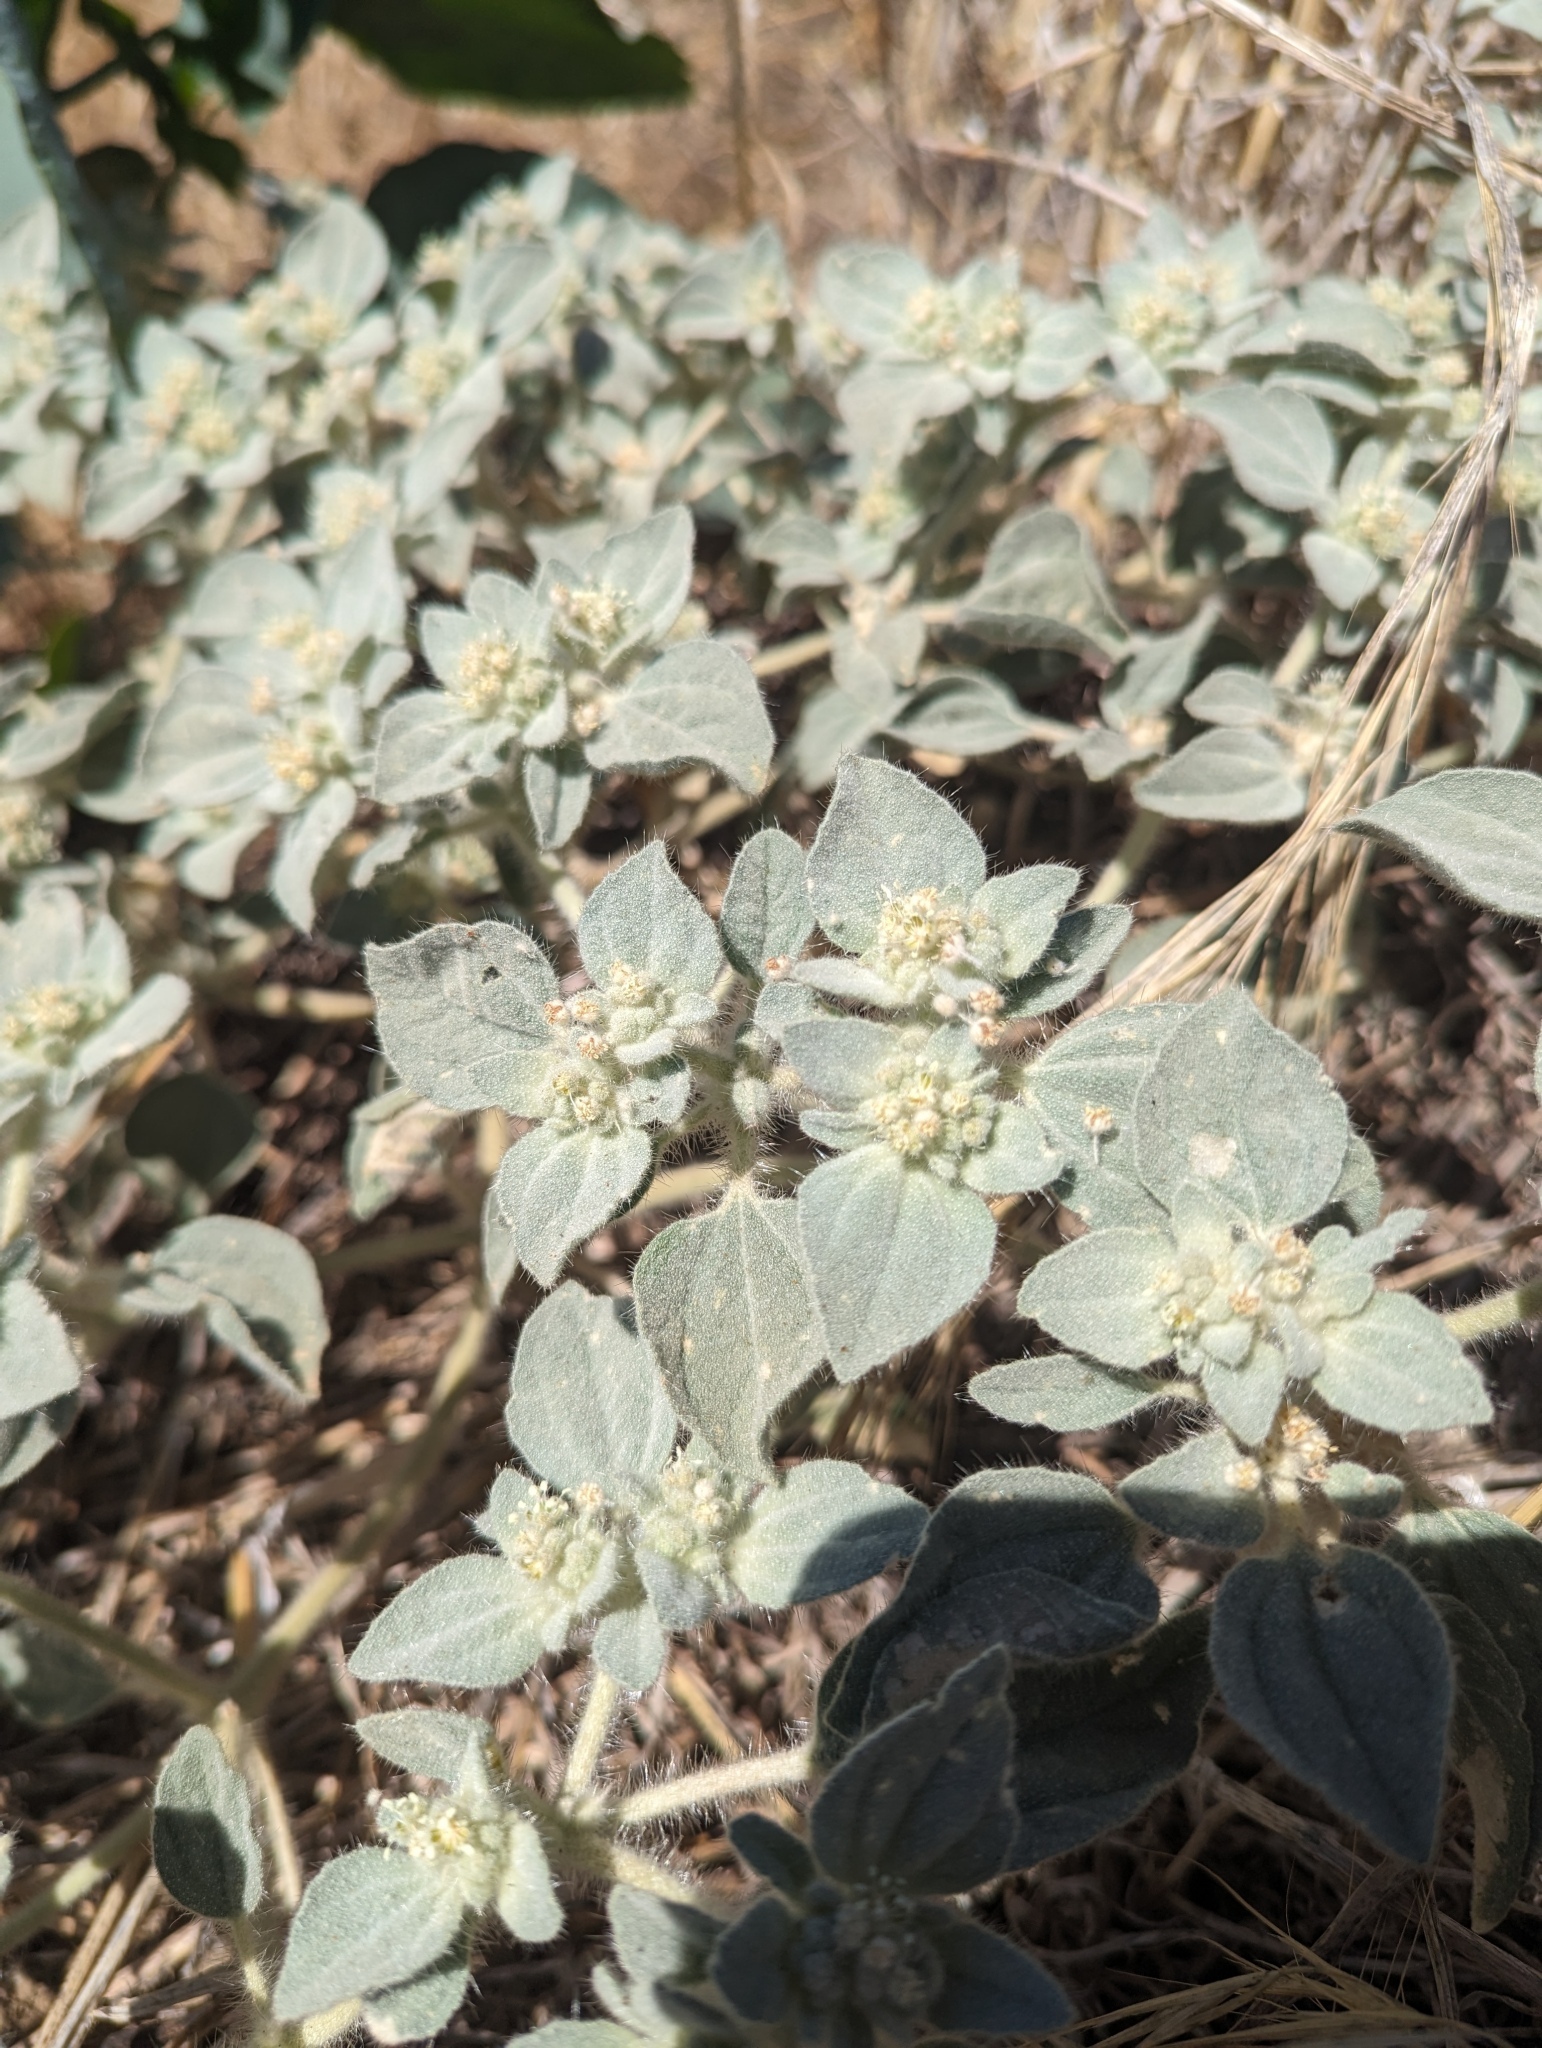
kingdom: Plantae
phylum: Tracheophyta
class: Magnoliopsida
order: Malpighiales
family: Euphorbiaceae
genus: Croton
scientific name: Croton setiger
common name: Dove weed
